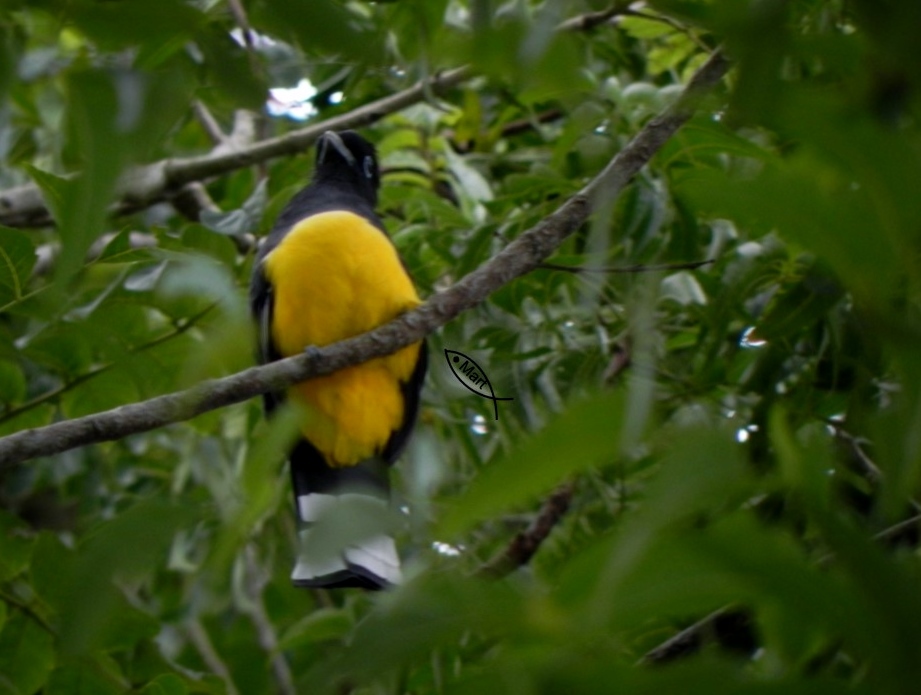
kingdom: Animalia
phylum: Chordata
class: Aves
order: Trogoniformes
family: Trogonidae
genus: Trogon
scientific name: Trogon melanocephalus
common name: Black-headed trogon
